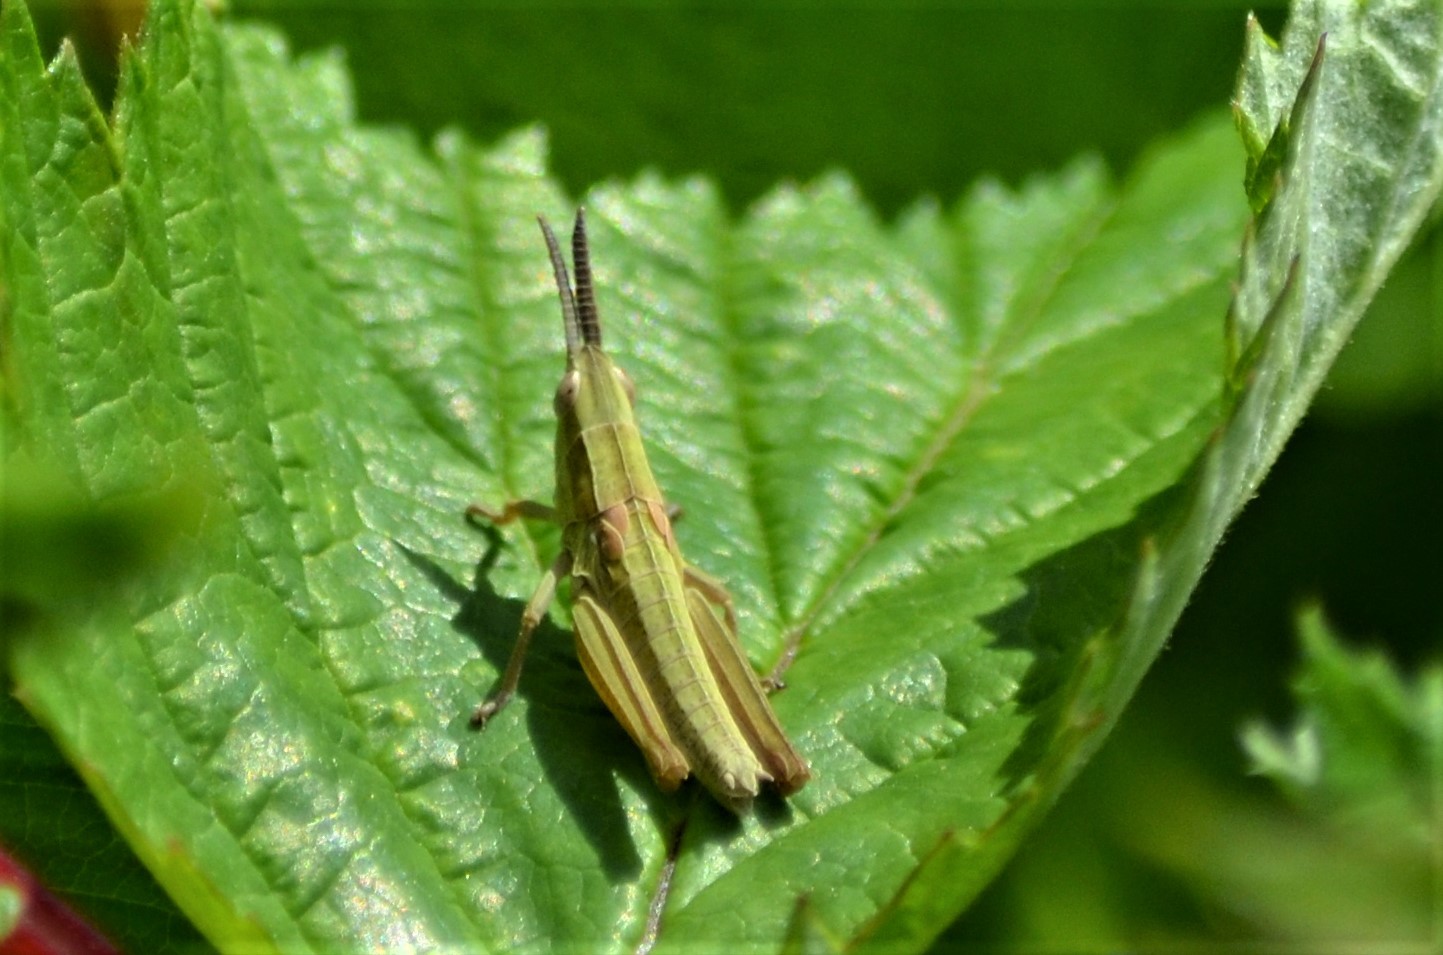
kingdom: Animalia
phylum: Arthropoda
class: Insecta
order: Orthoptera
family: Acrididae
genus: Euthystira
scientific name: Euthystira brachyptera
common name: Small gold grasshopper
